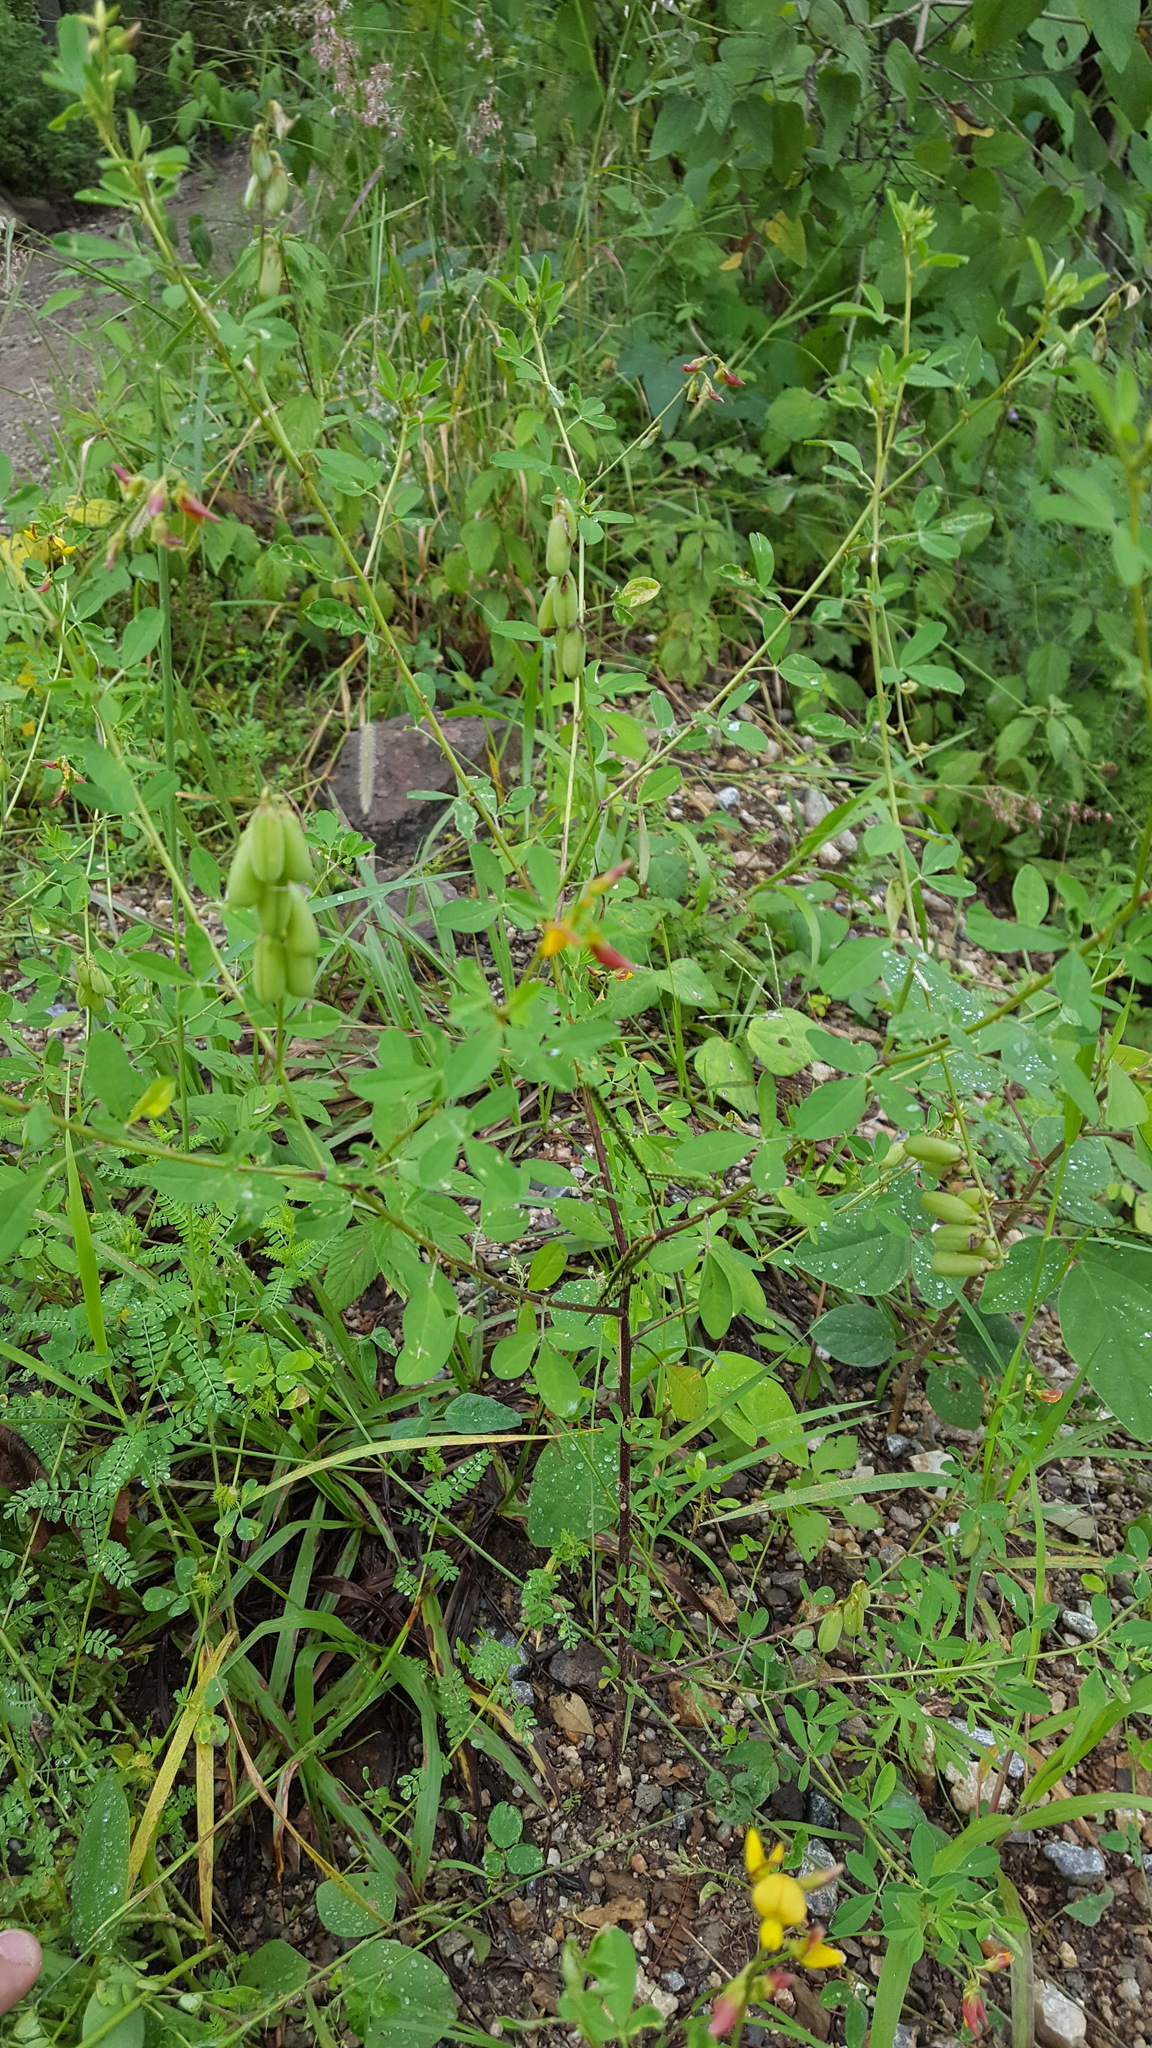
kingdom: Plantae
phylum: Tracheophyta
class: Magnoliopsida
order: Fabales
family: Fabaceae
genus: Crotalaria
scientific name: Crotalaria pumila
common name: Low rattlebox
